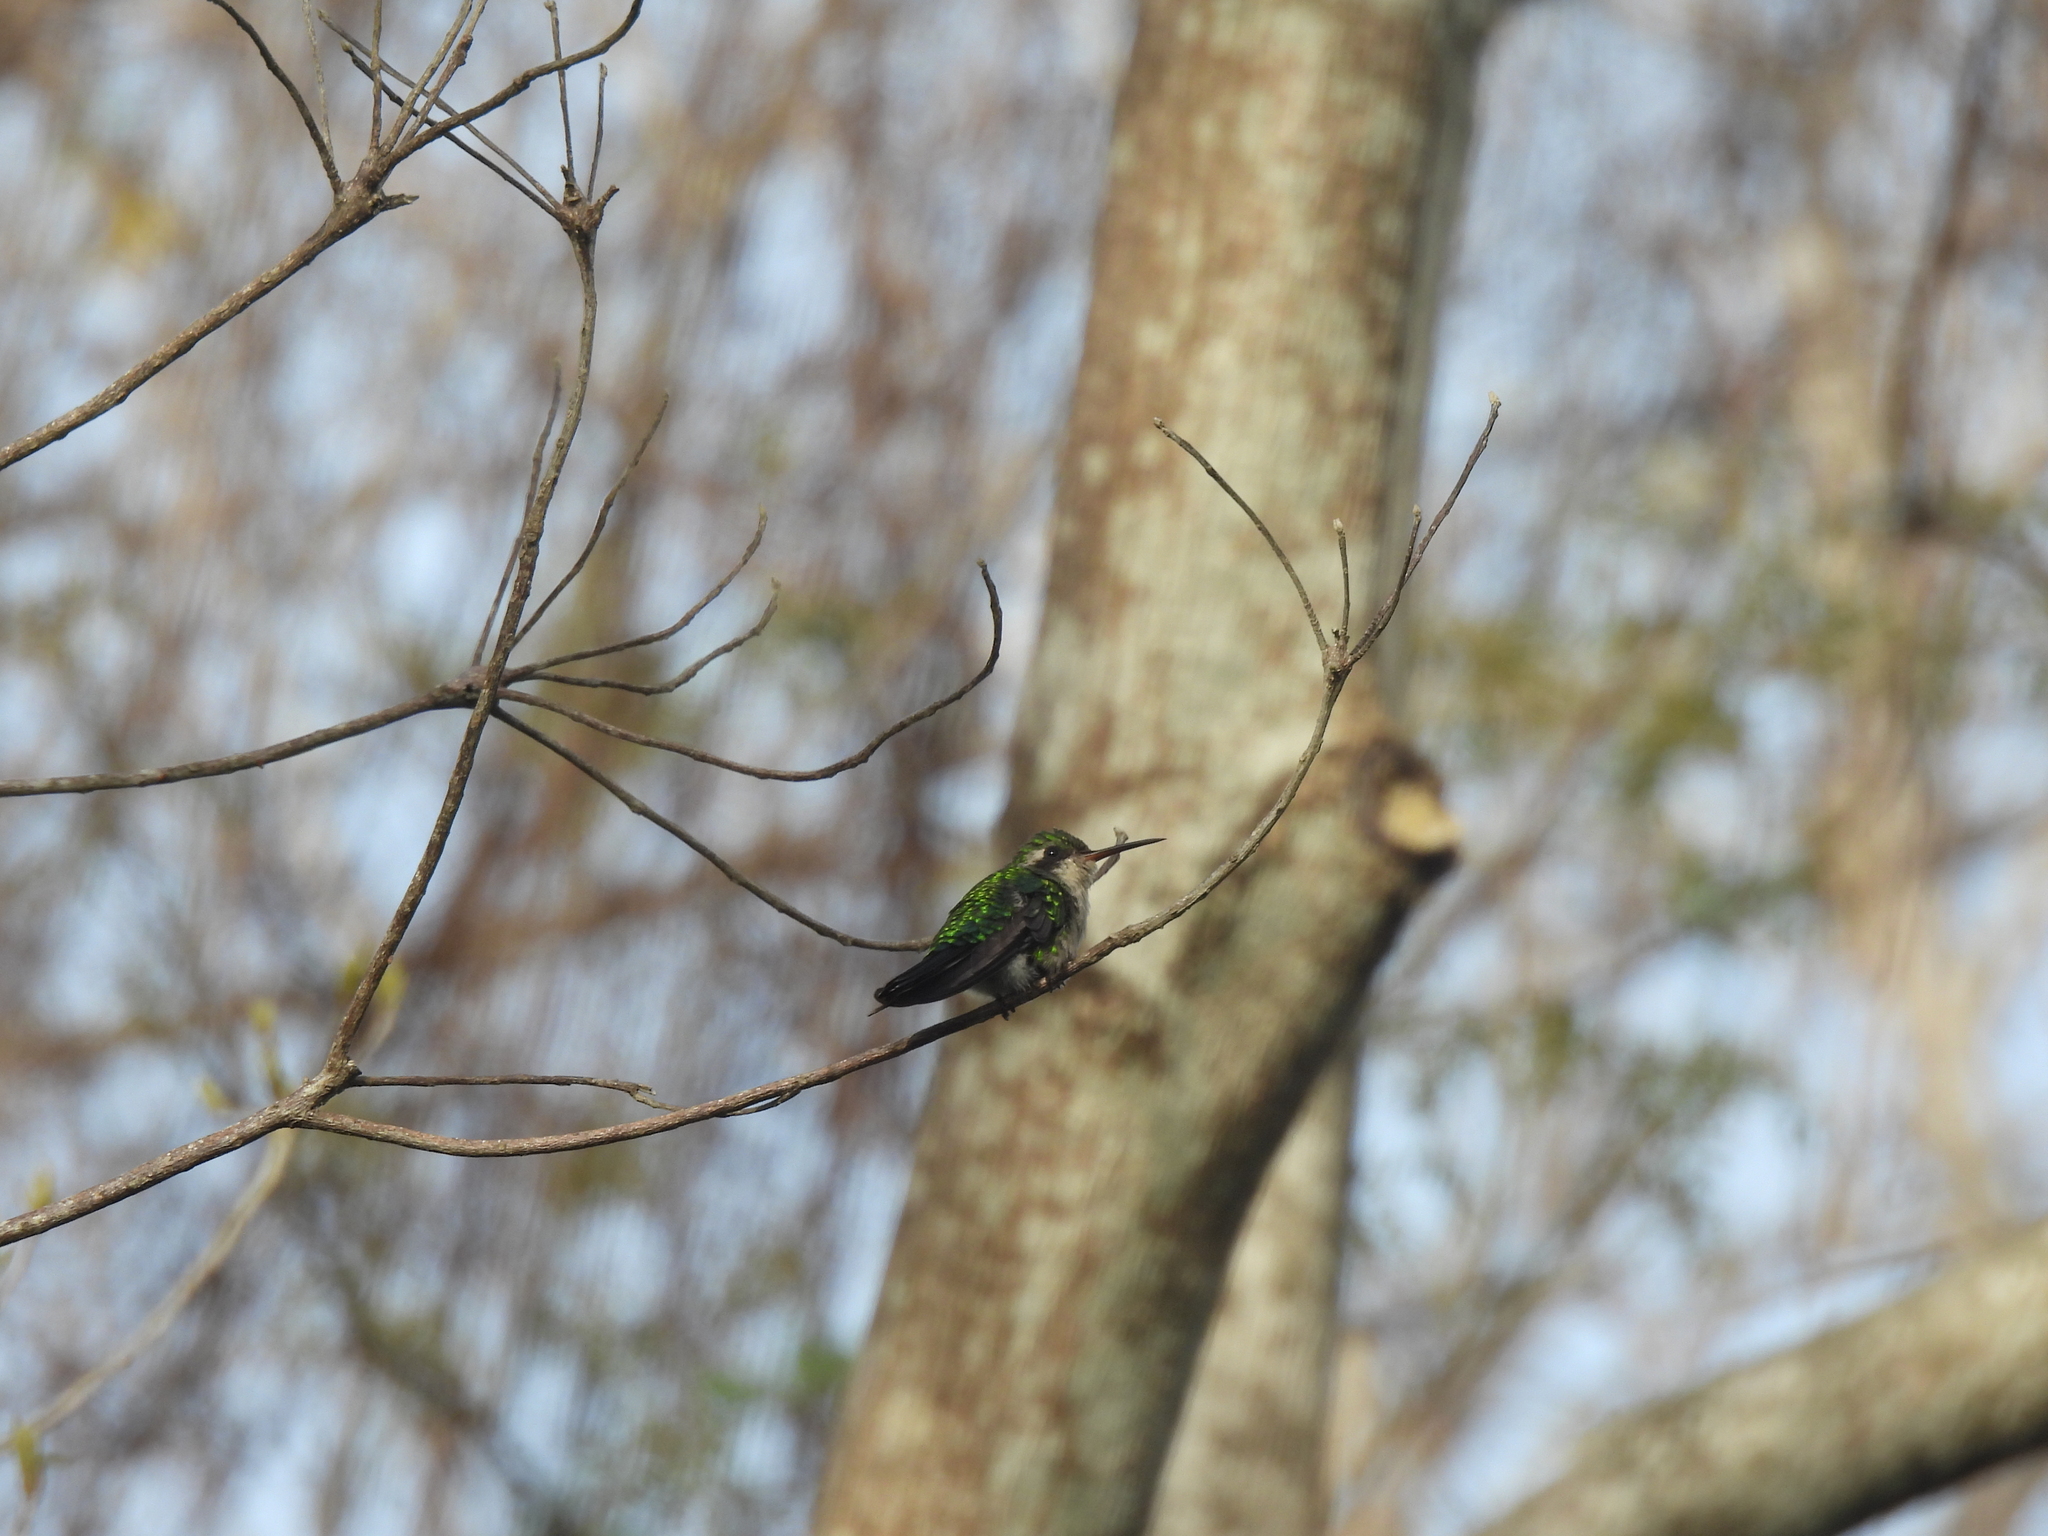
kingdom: Animalia
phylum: Chordata
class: Aves
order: Apodiformes
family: Trochilidae
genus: Cynanthus
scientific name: Cynanthus canivetii
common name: Canivet's emerald
